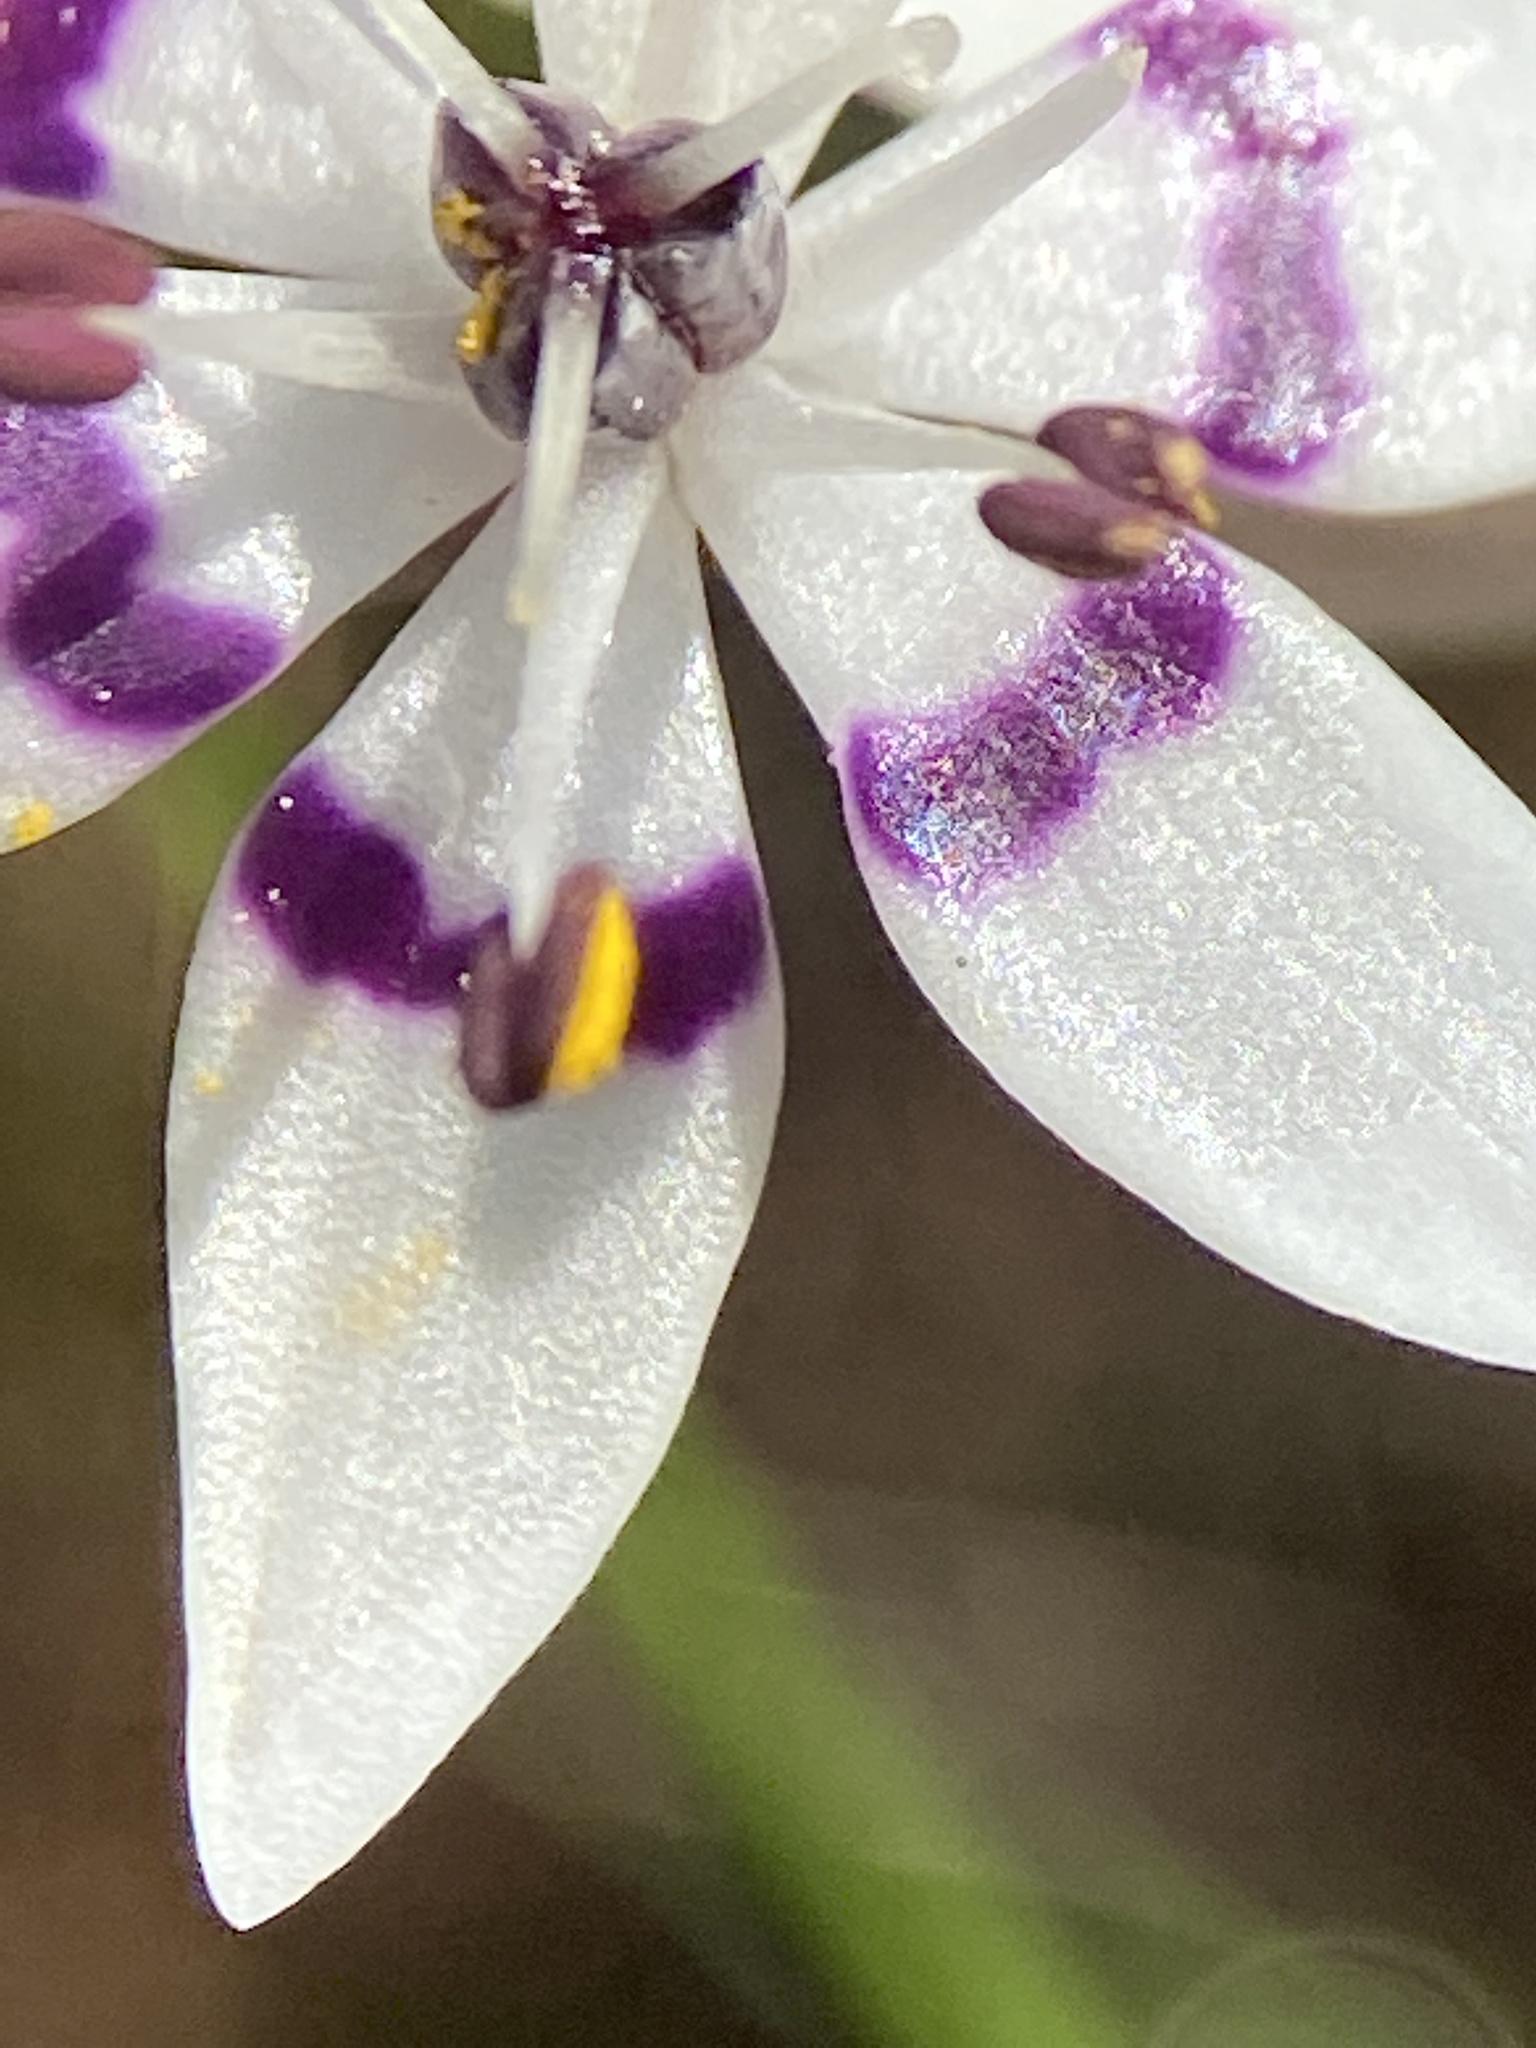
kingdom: Plantae
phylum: Tracheophyta
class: Liliopsida
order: Liliales
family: Colchicaceae
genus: Wurmbea
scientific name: Wurmbea dioica
